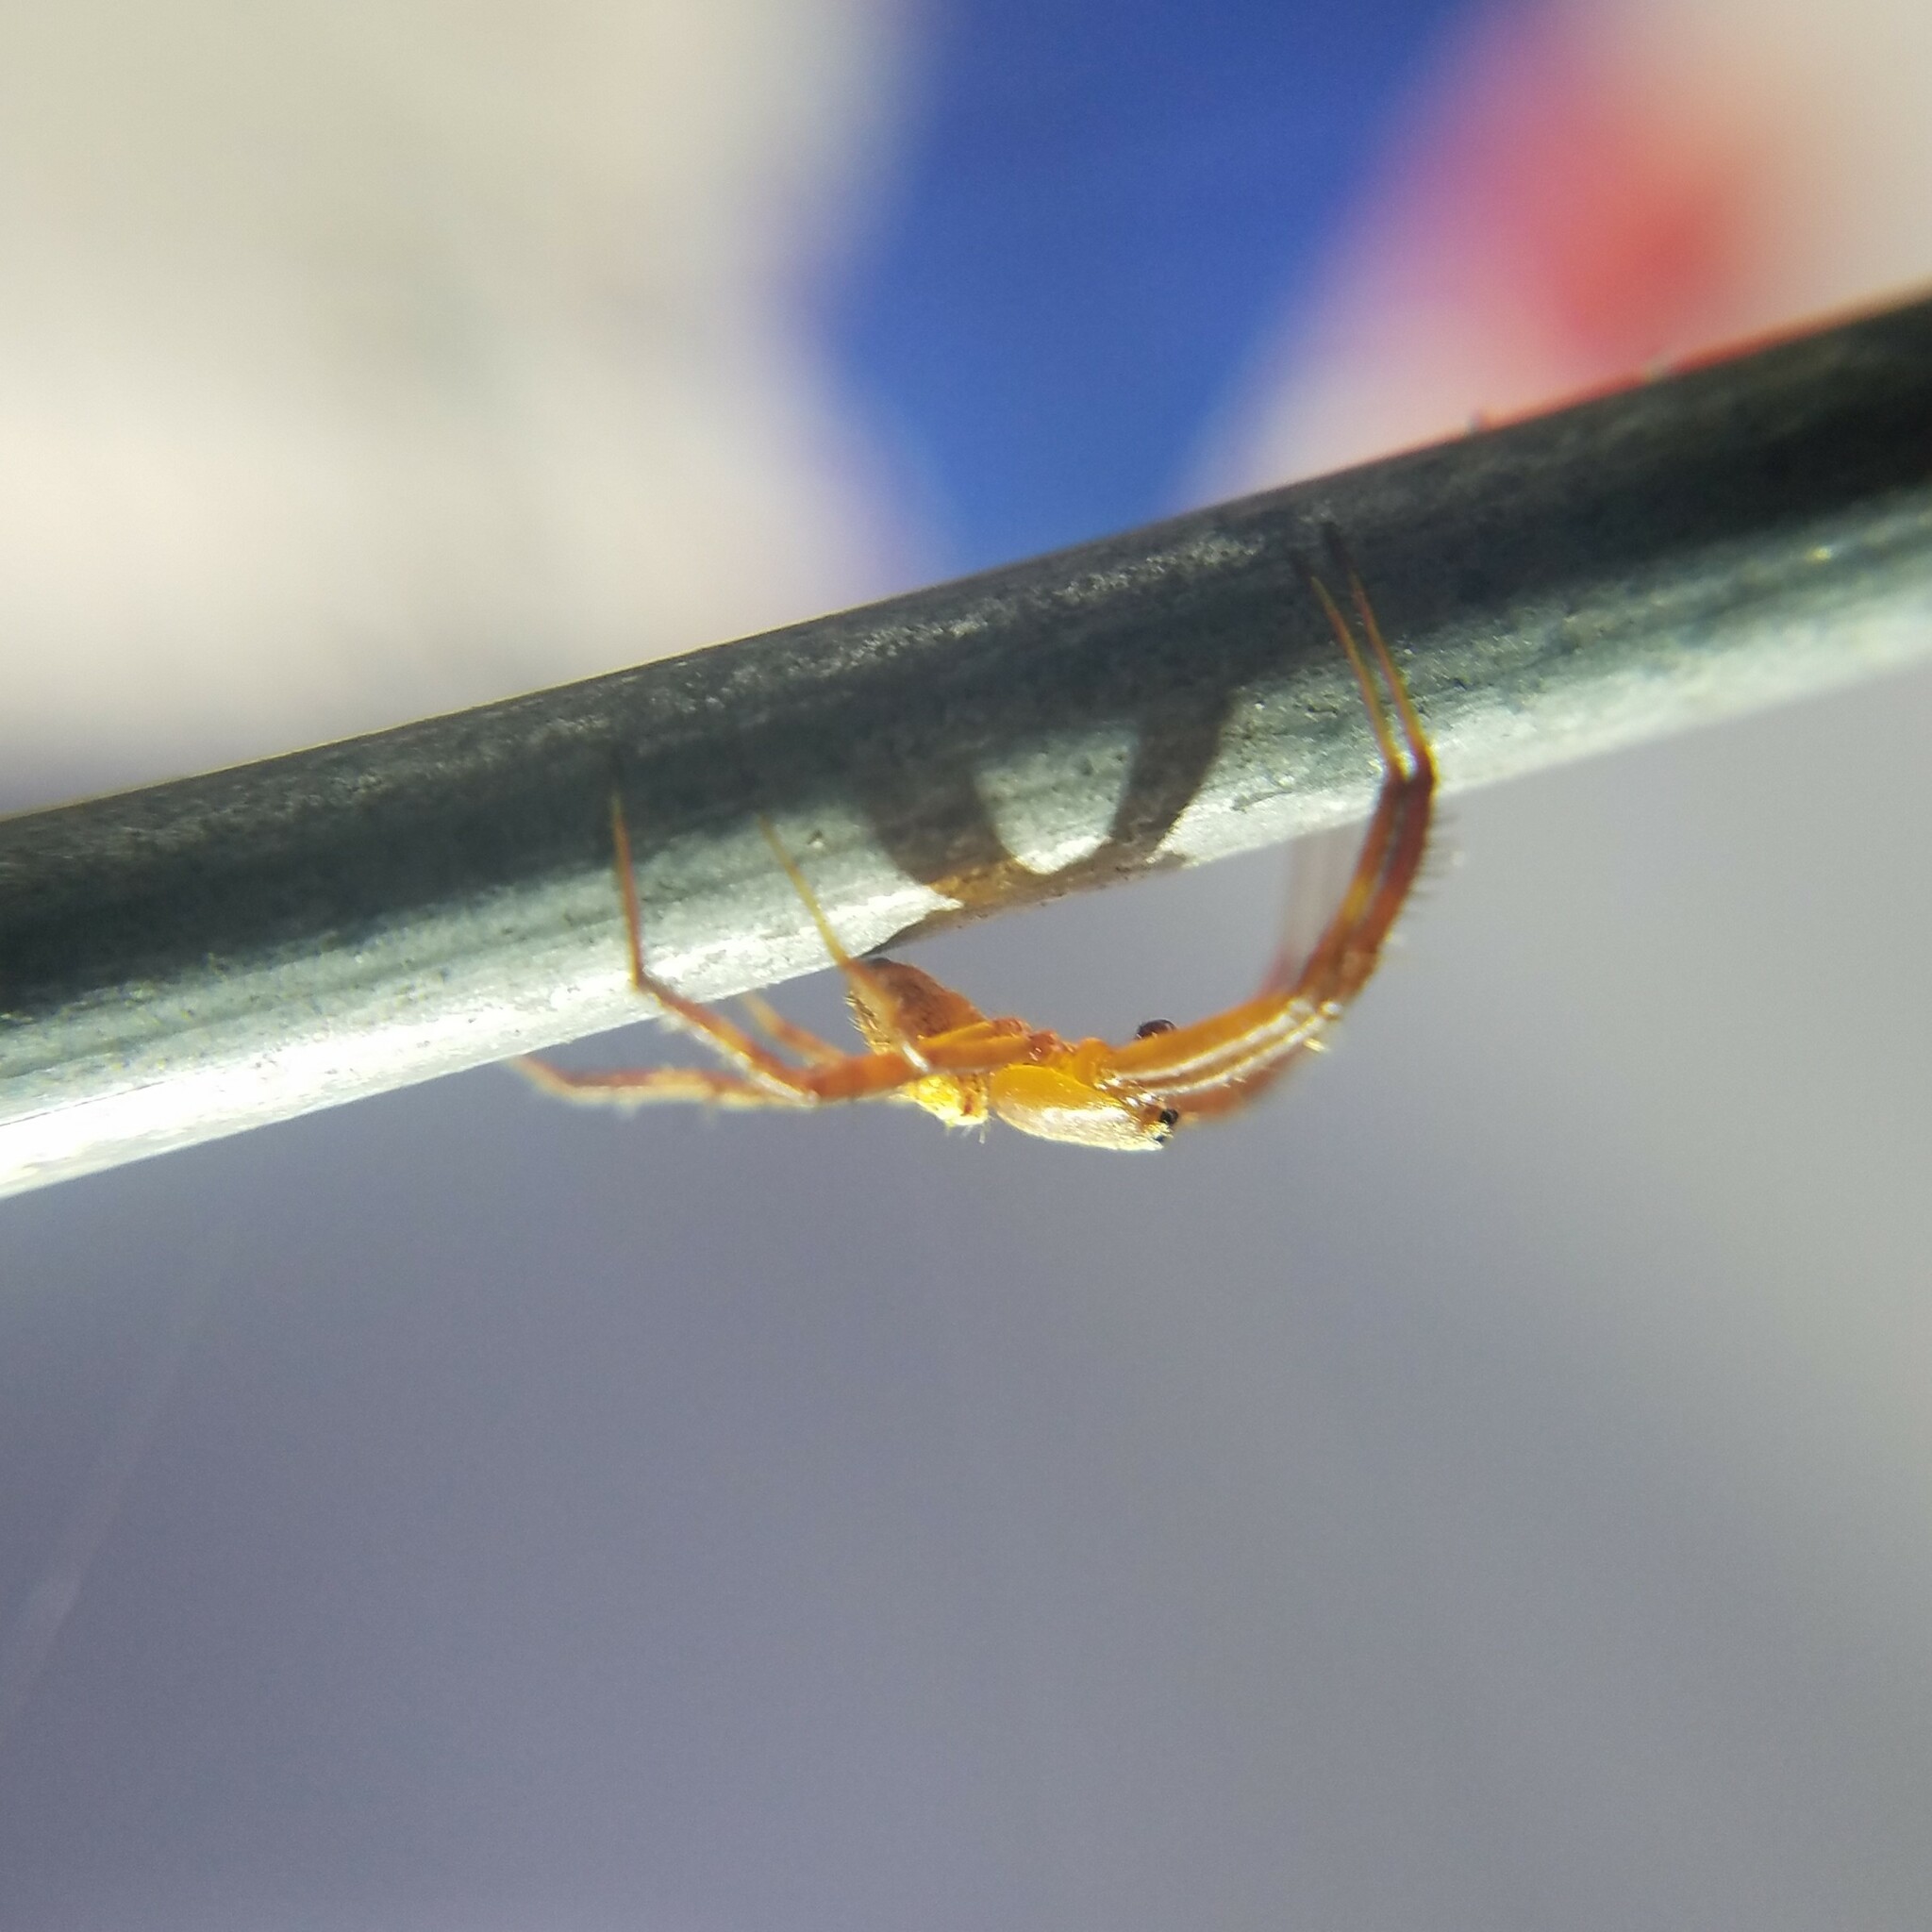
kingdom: Animalia
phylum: Arthropoda
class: Arachnida
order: Araneae
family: Araneidae
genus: Gea
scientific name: Gea heptagon
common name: Orb weavers
